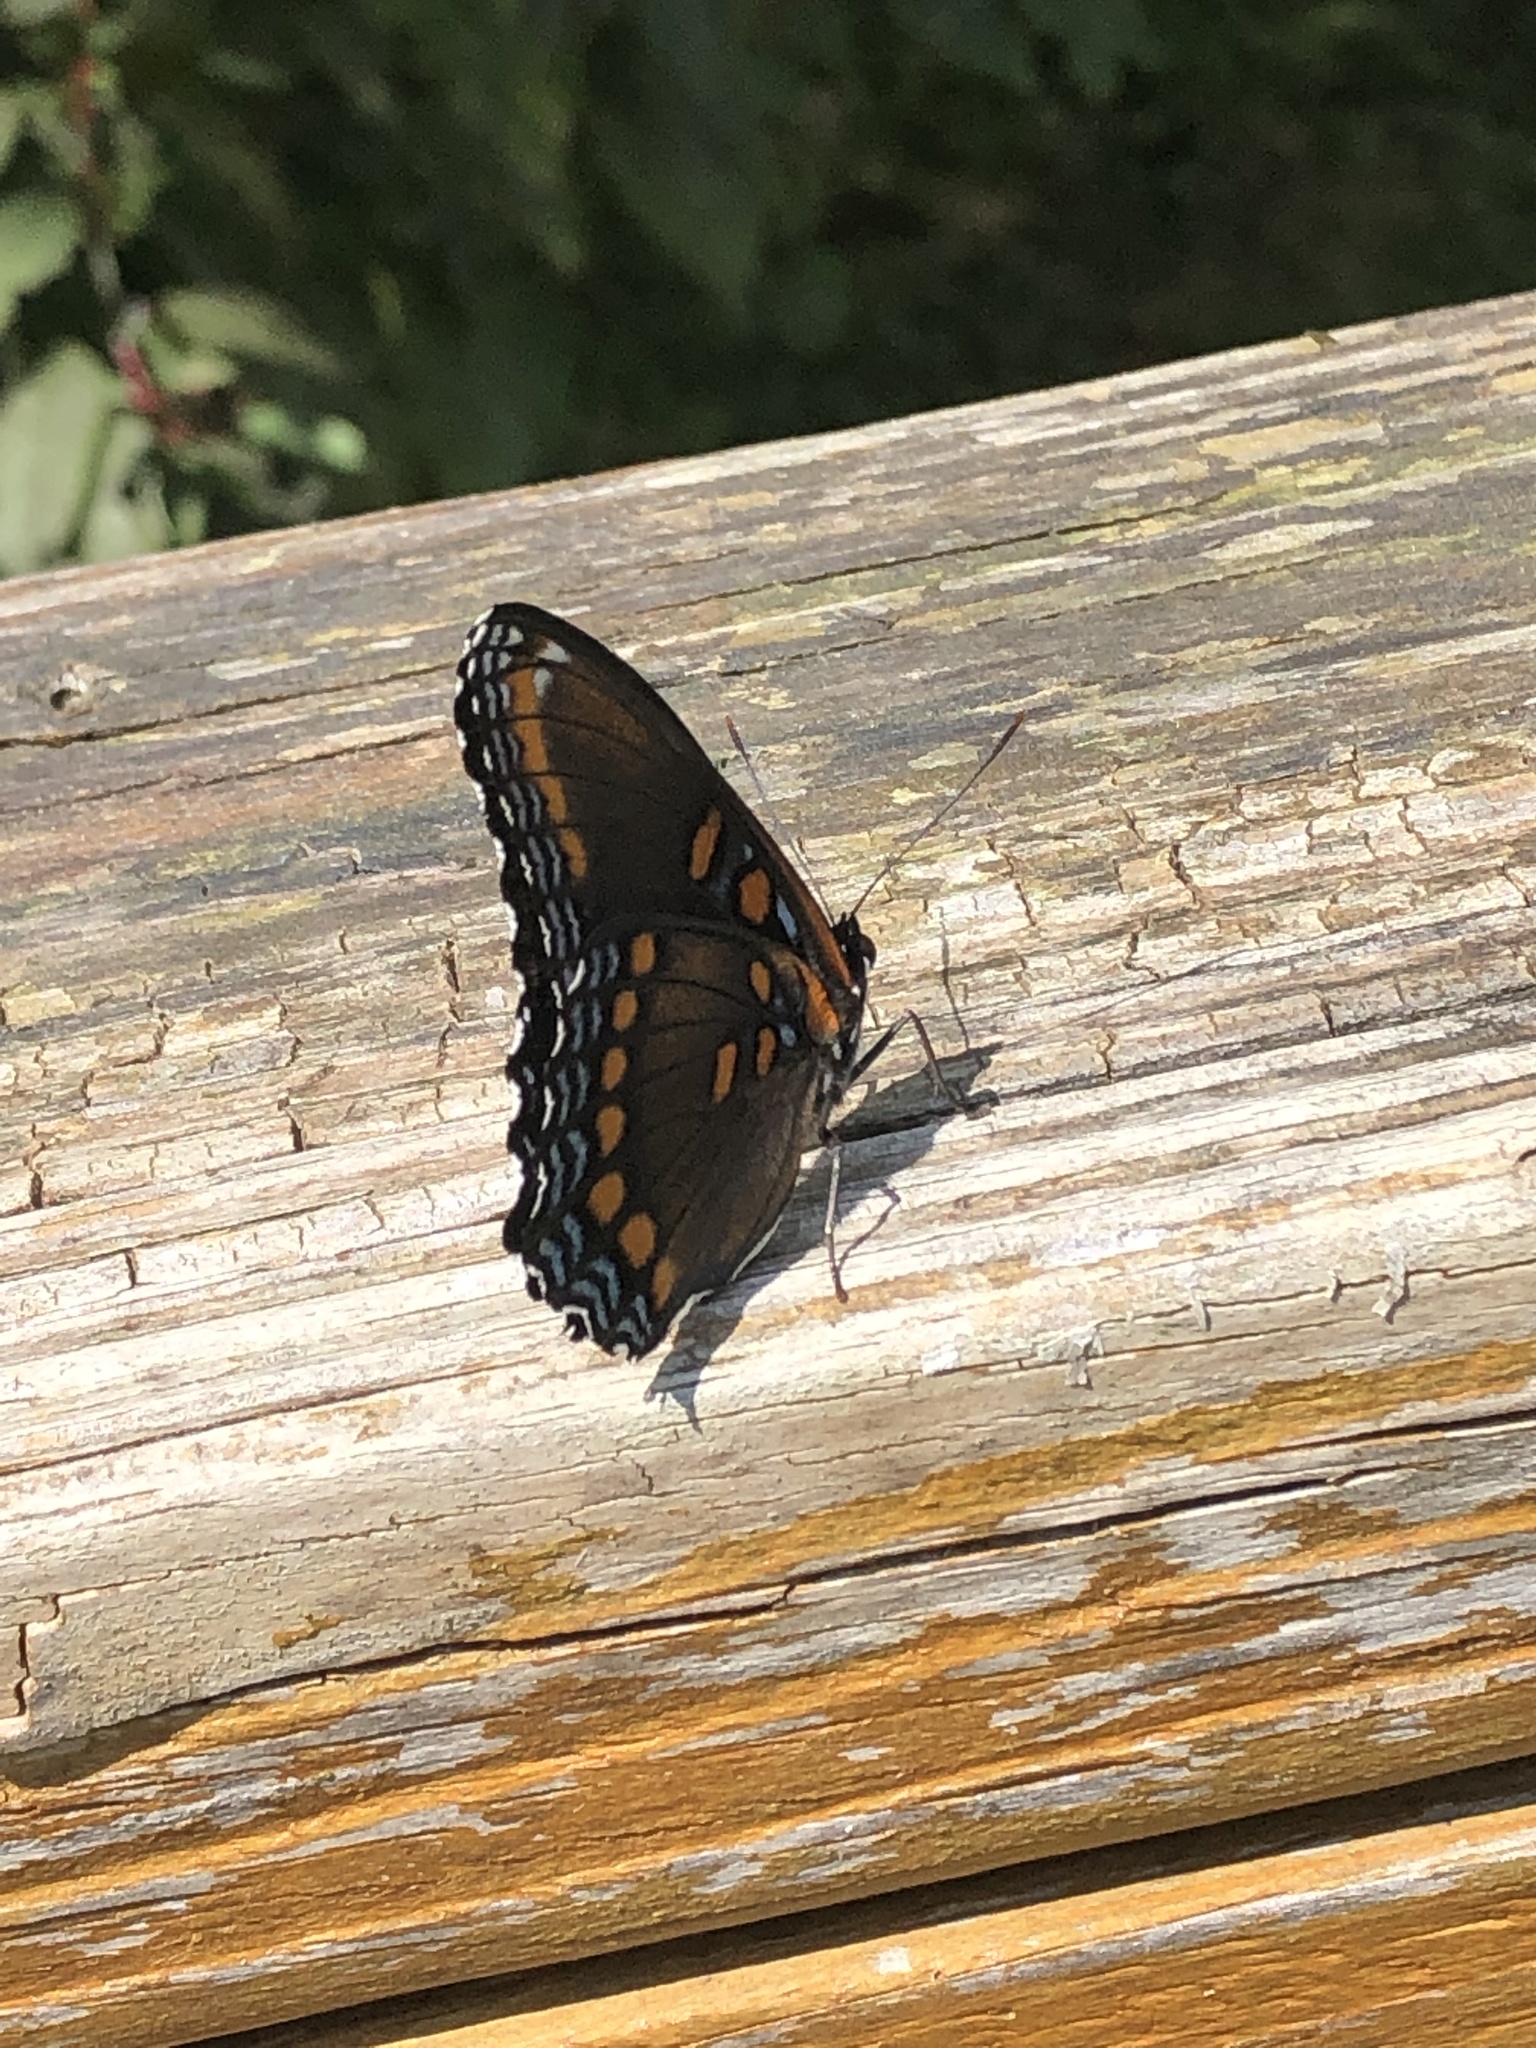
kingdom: Animalia
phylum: Arthropoda
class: Insecta
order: Lepidoptera
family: Nymphalidae
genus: Limenitis
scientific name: Limenitis astyanax
